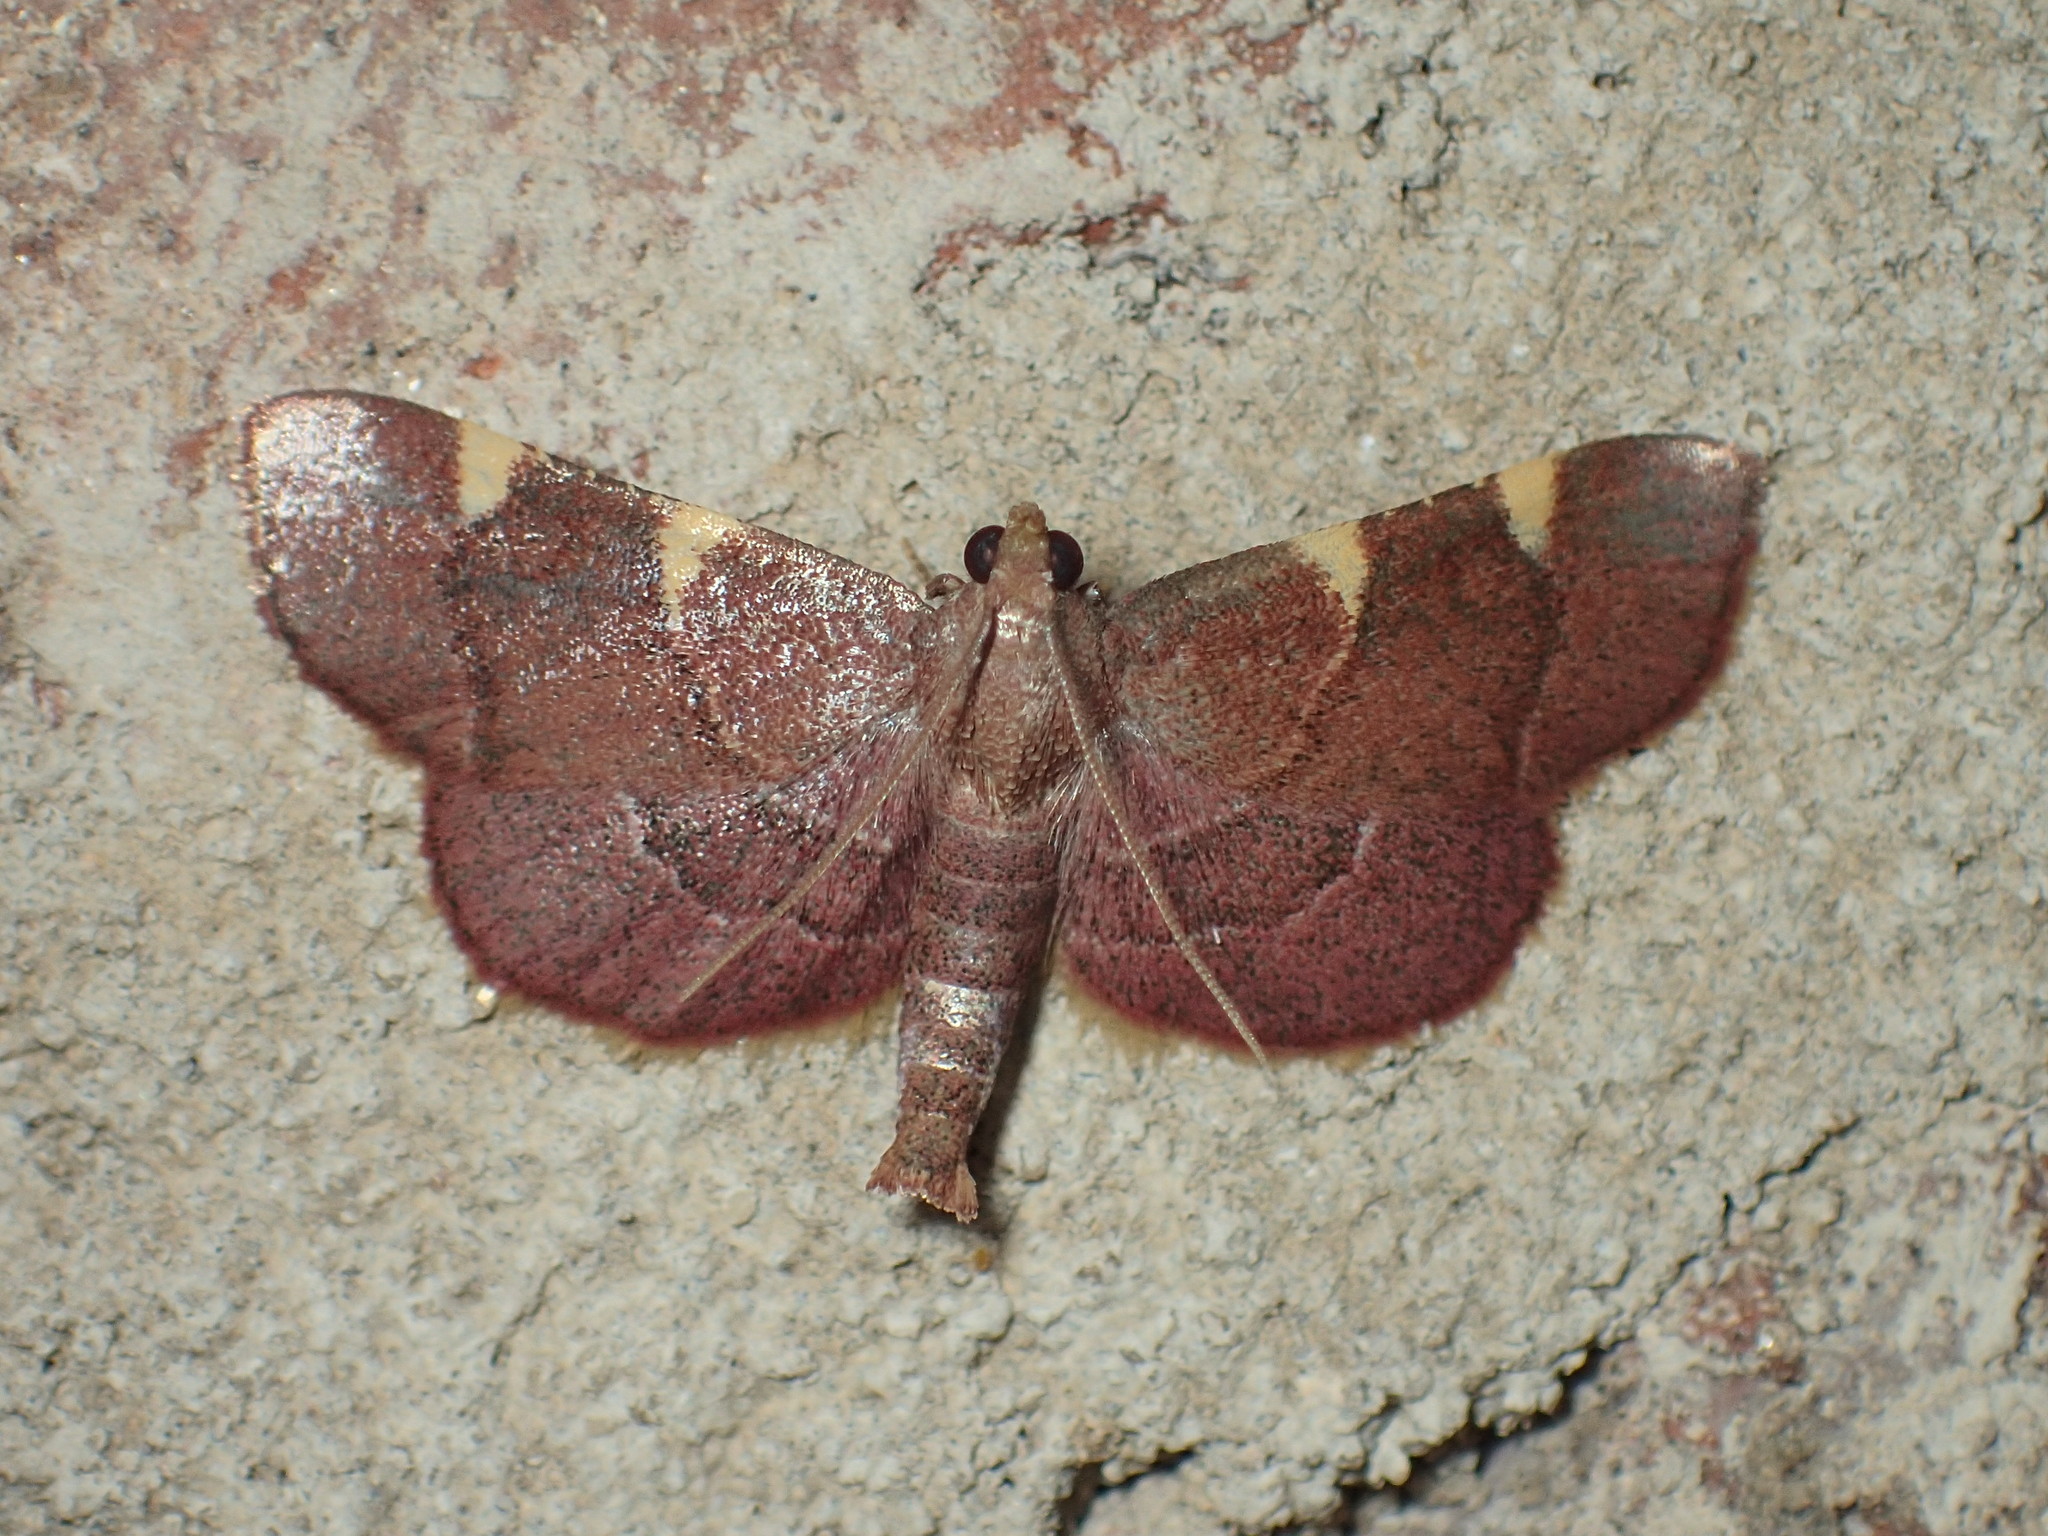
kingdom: Animalia
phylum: Arthropoda
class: Insecta
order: Lepidoptera
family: Pyralidae
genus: Hypsopygia
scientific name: Hypsopygia olinalis
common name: Yellow-fringed dolichomia moth
